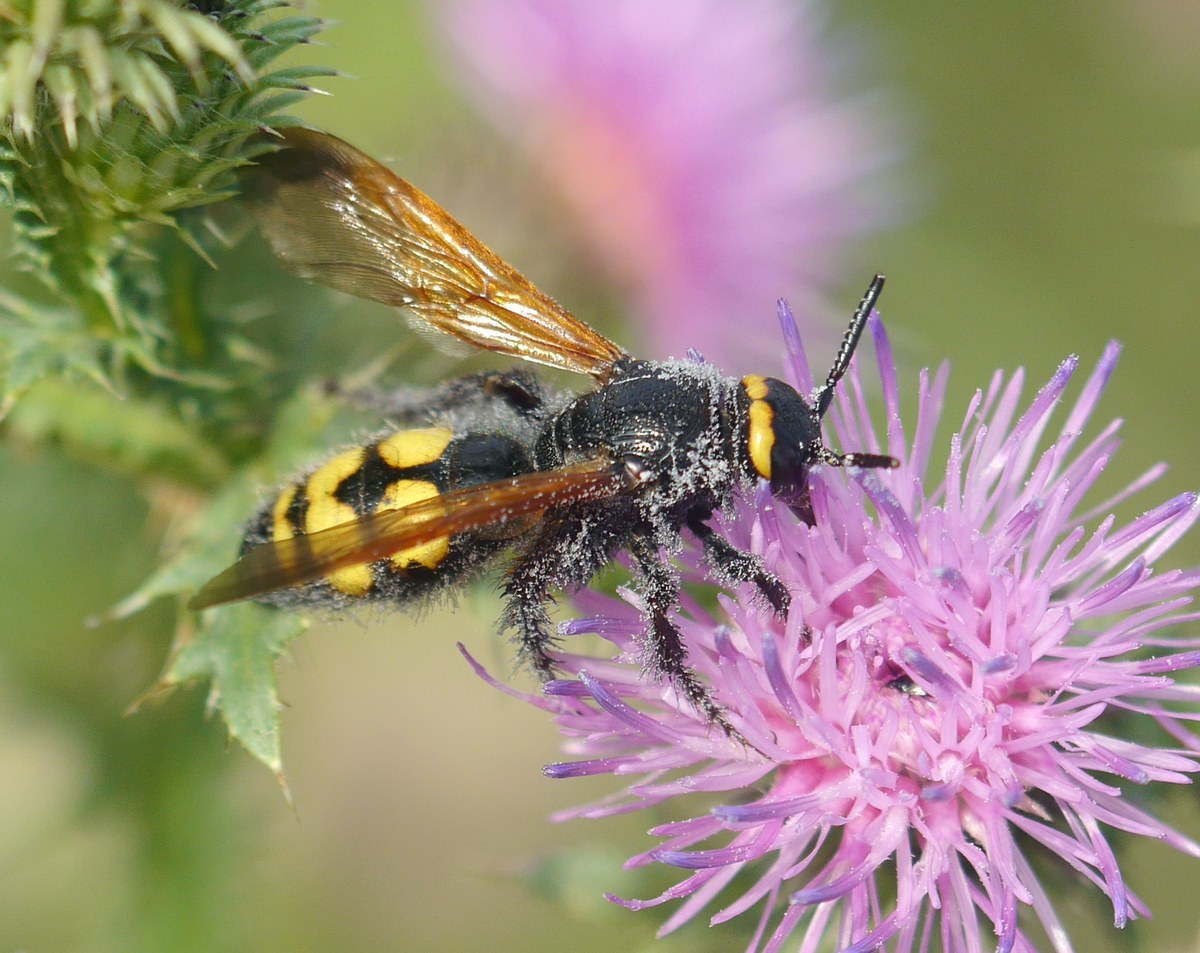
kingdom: Animalia
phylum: Arthropoda
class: Insecta
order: Hymenoptera
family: Scoliidae
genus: Scolia
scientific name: Scolia fuciformis
